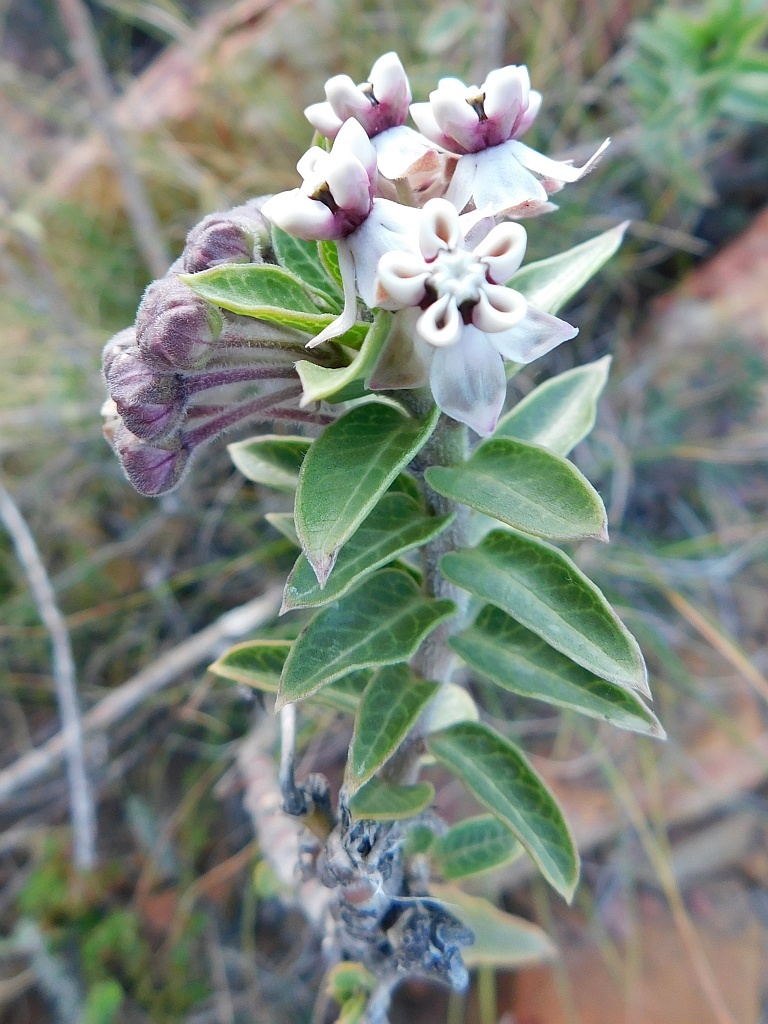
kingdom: Plantae
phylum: Tracheophyta
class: Magnoliopsida
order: Gentianales
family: Apocynaceae
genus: Gomphocarpus
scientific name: Gomphocarpus cancellatus
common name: Wild cotton
